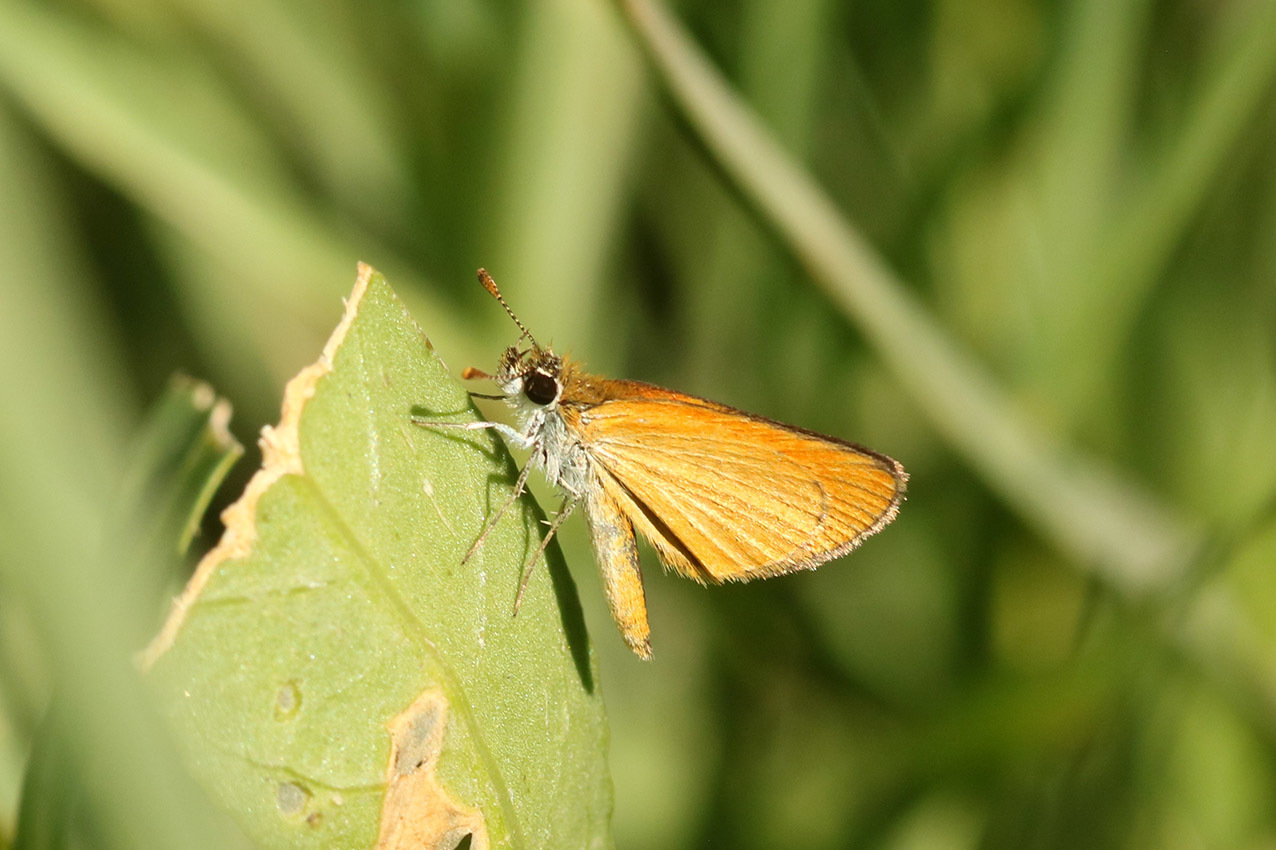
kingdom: Animalia
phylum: Arthropoda
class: Insecta
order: Lepidoptera
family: Hesperiidae
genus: Ancyloxypha
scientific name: Ancyloxypha nitedula
